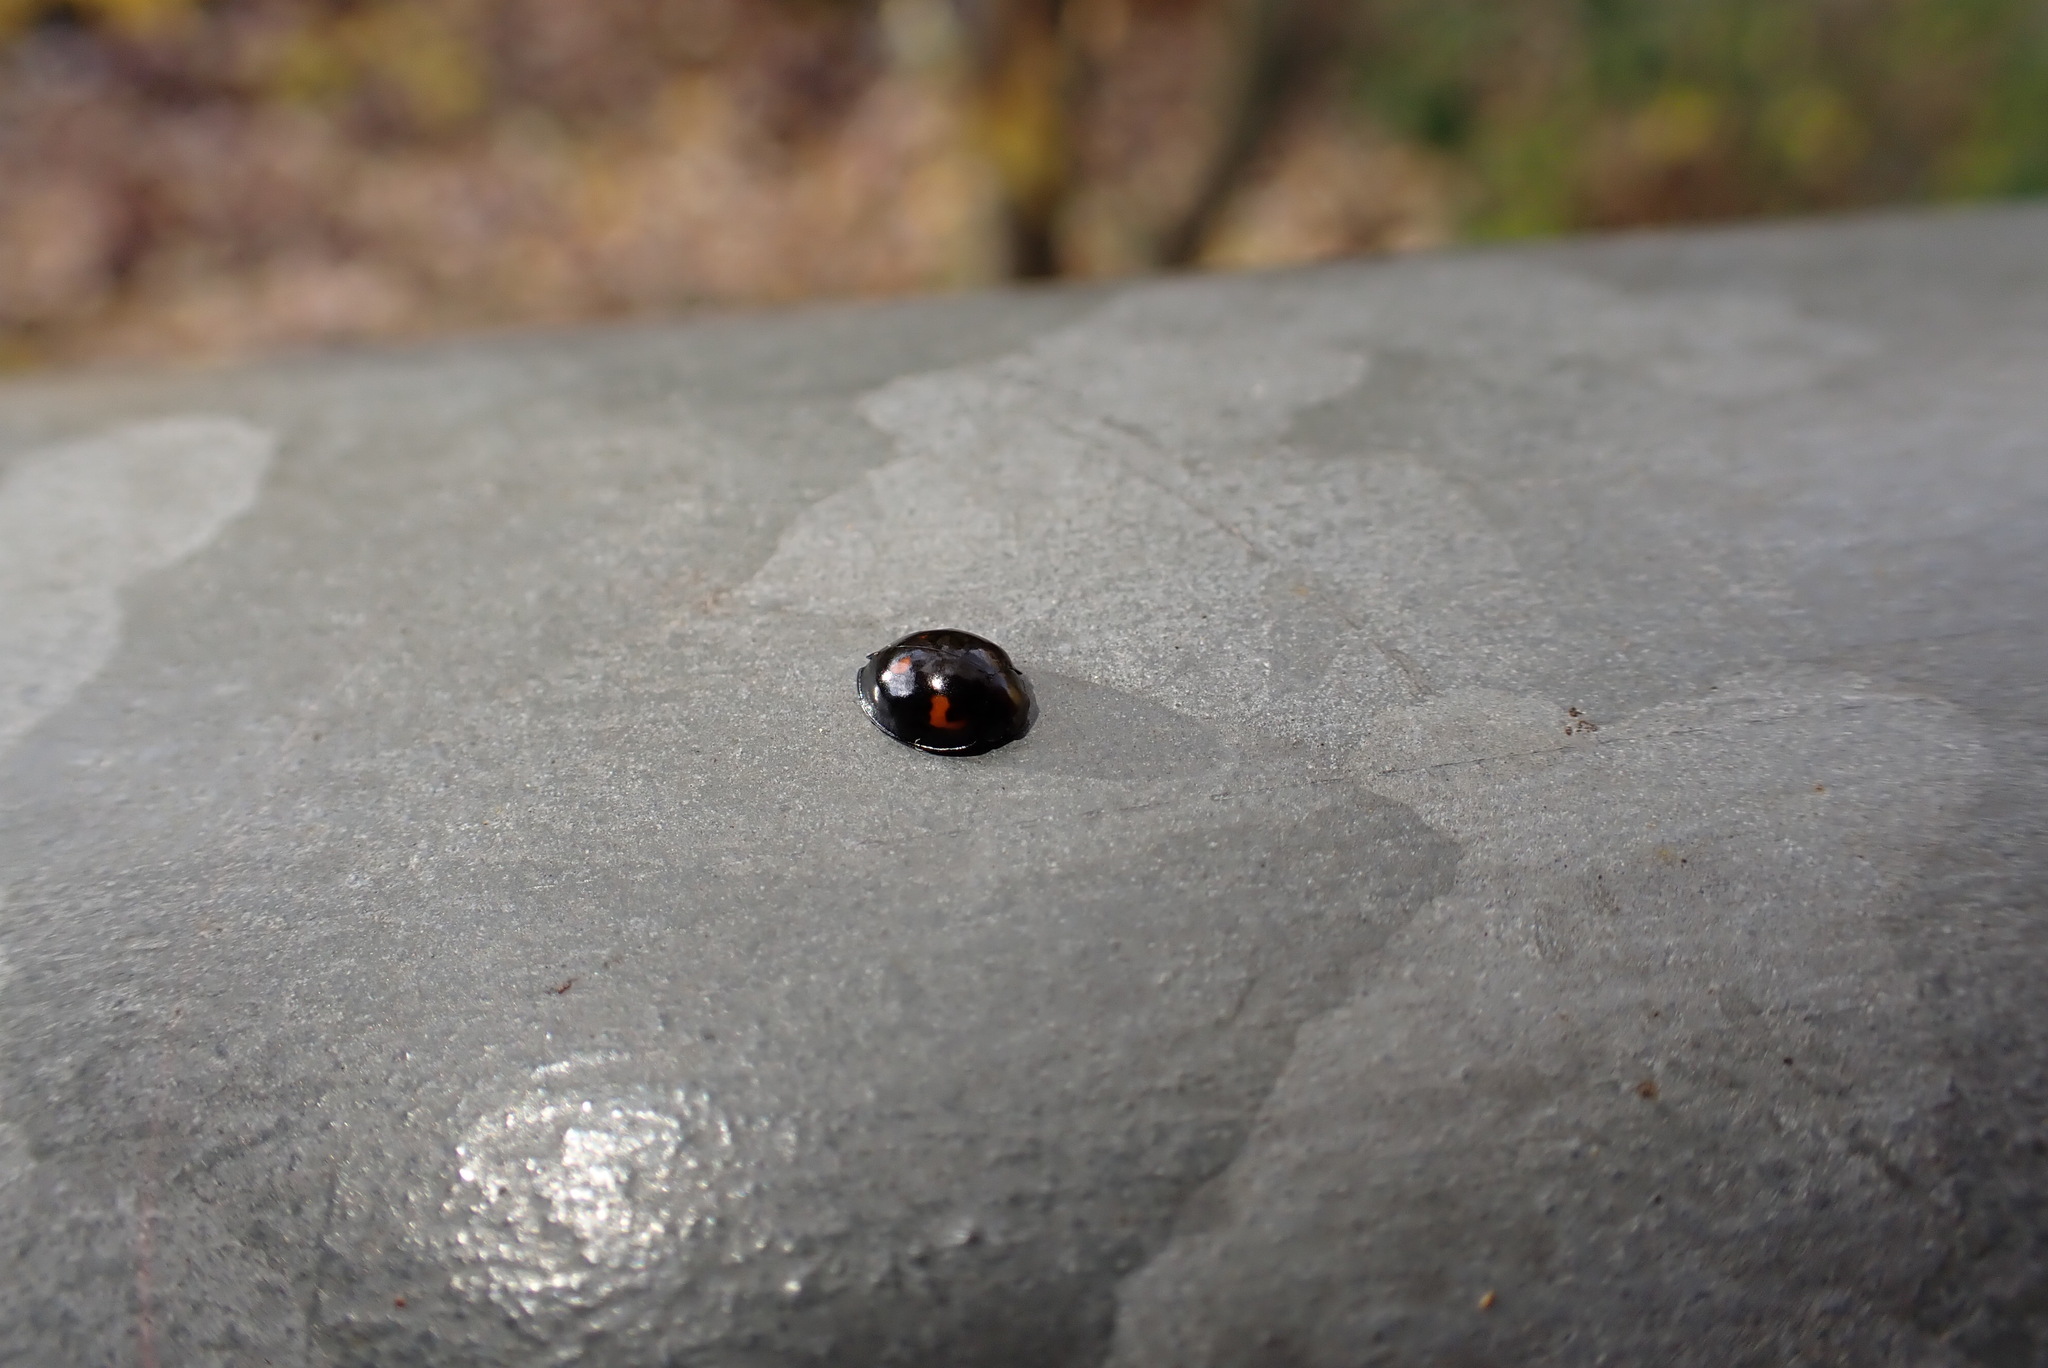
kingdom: Animalia
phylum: Arthropoda
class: Insecta
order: Coleoptera
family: Coccinellidae
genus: Brumus
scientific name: Brumus quadripustulatus
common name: Ladybird beetle
